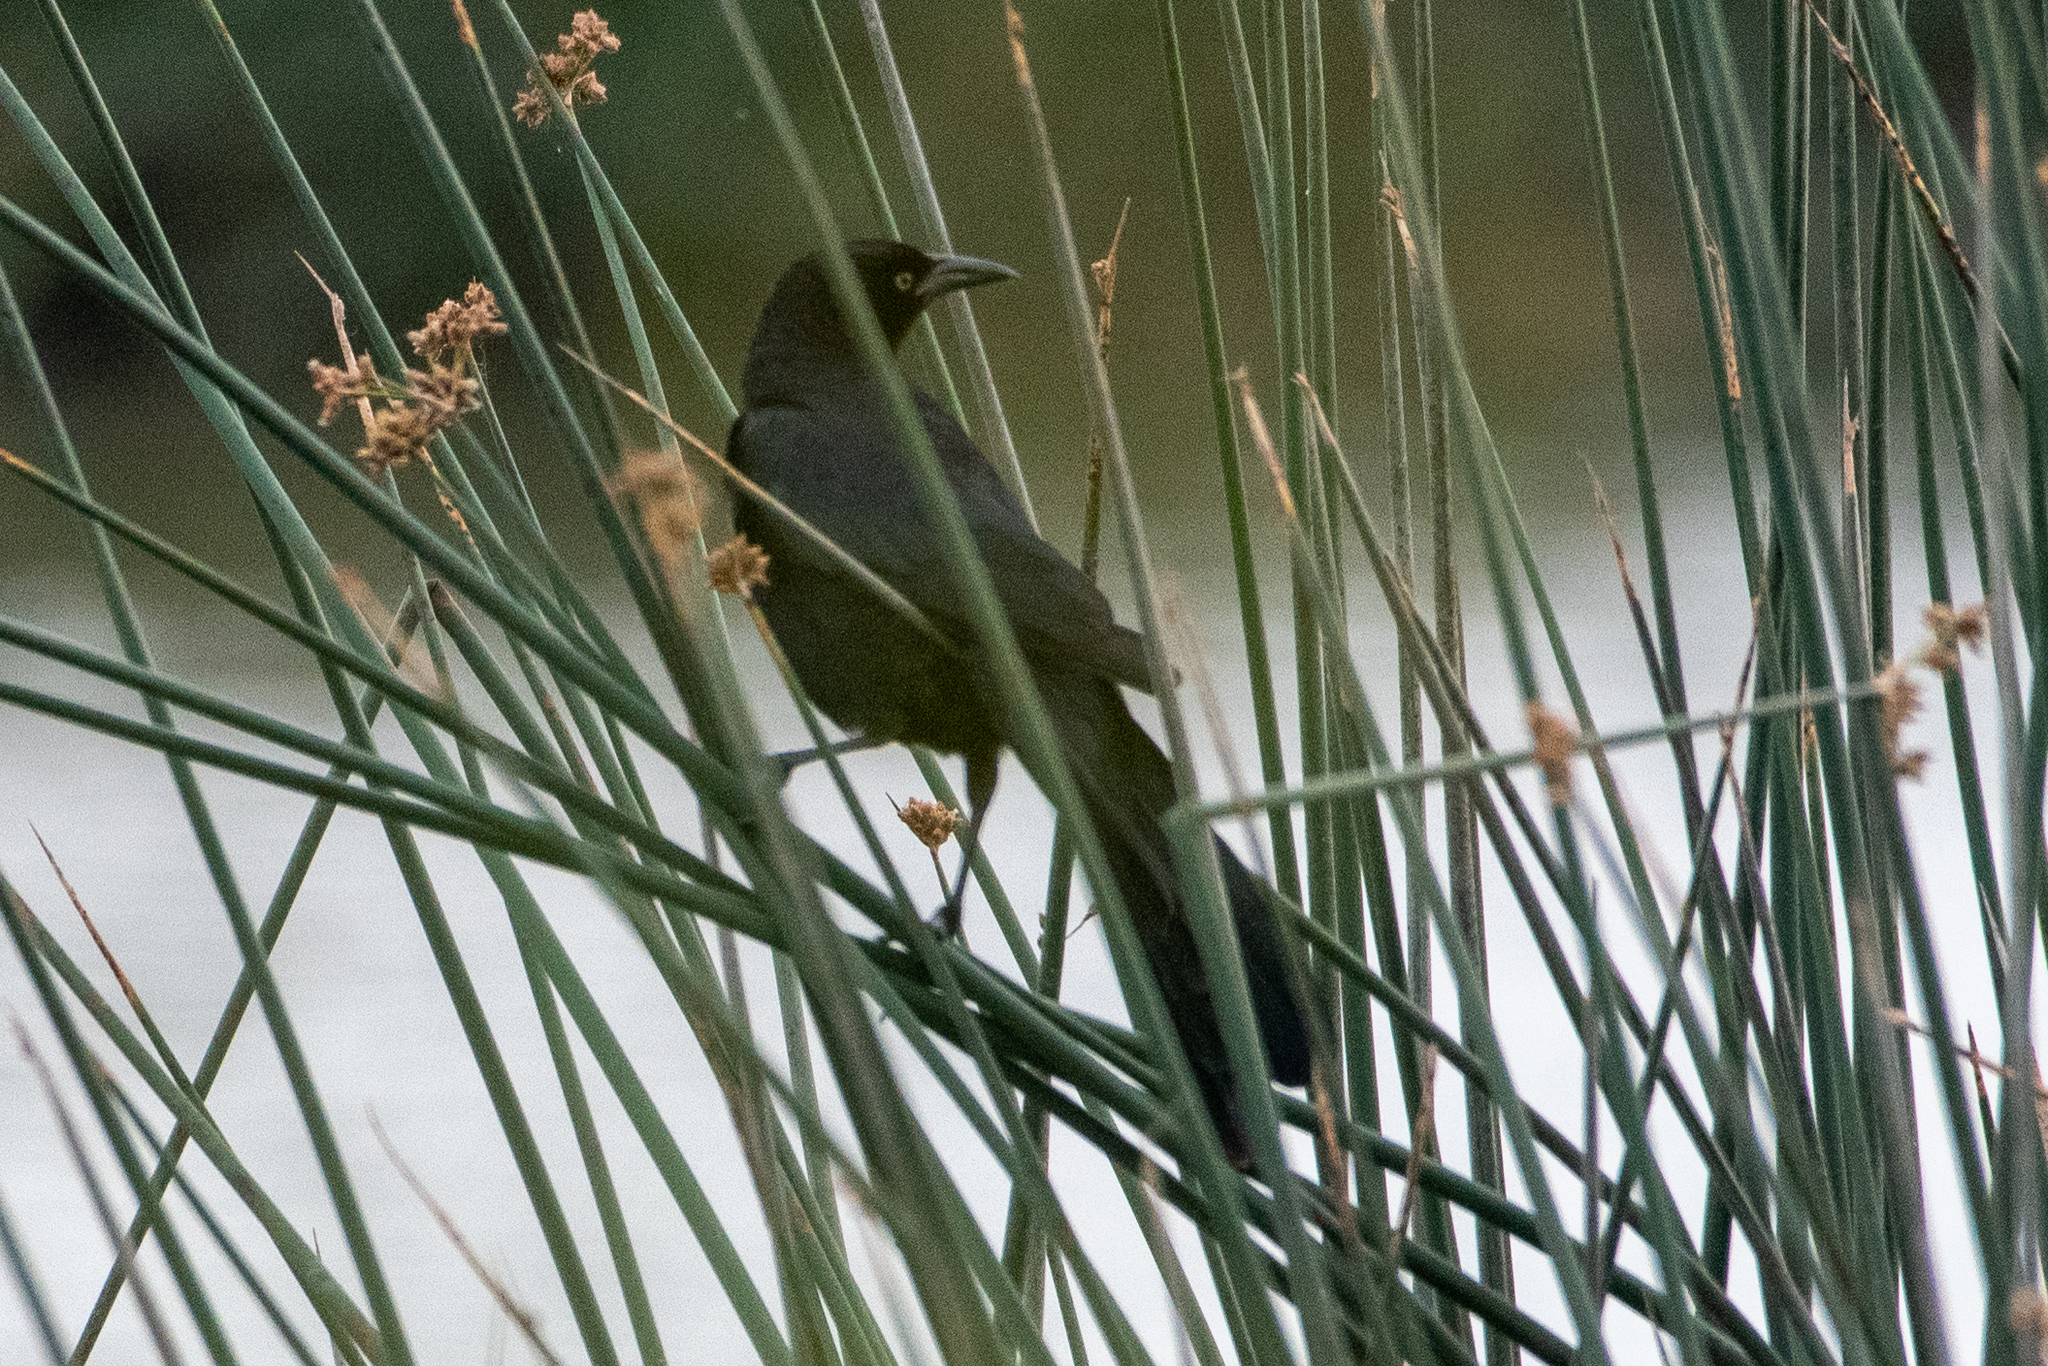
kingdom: Animalia
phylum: Chordata
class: Aves
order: Passeriformes
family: Icteridae
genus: Quiscalus
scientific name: Quiscalus mexicanus
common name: Great-tailed grackle
